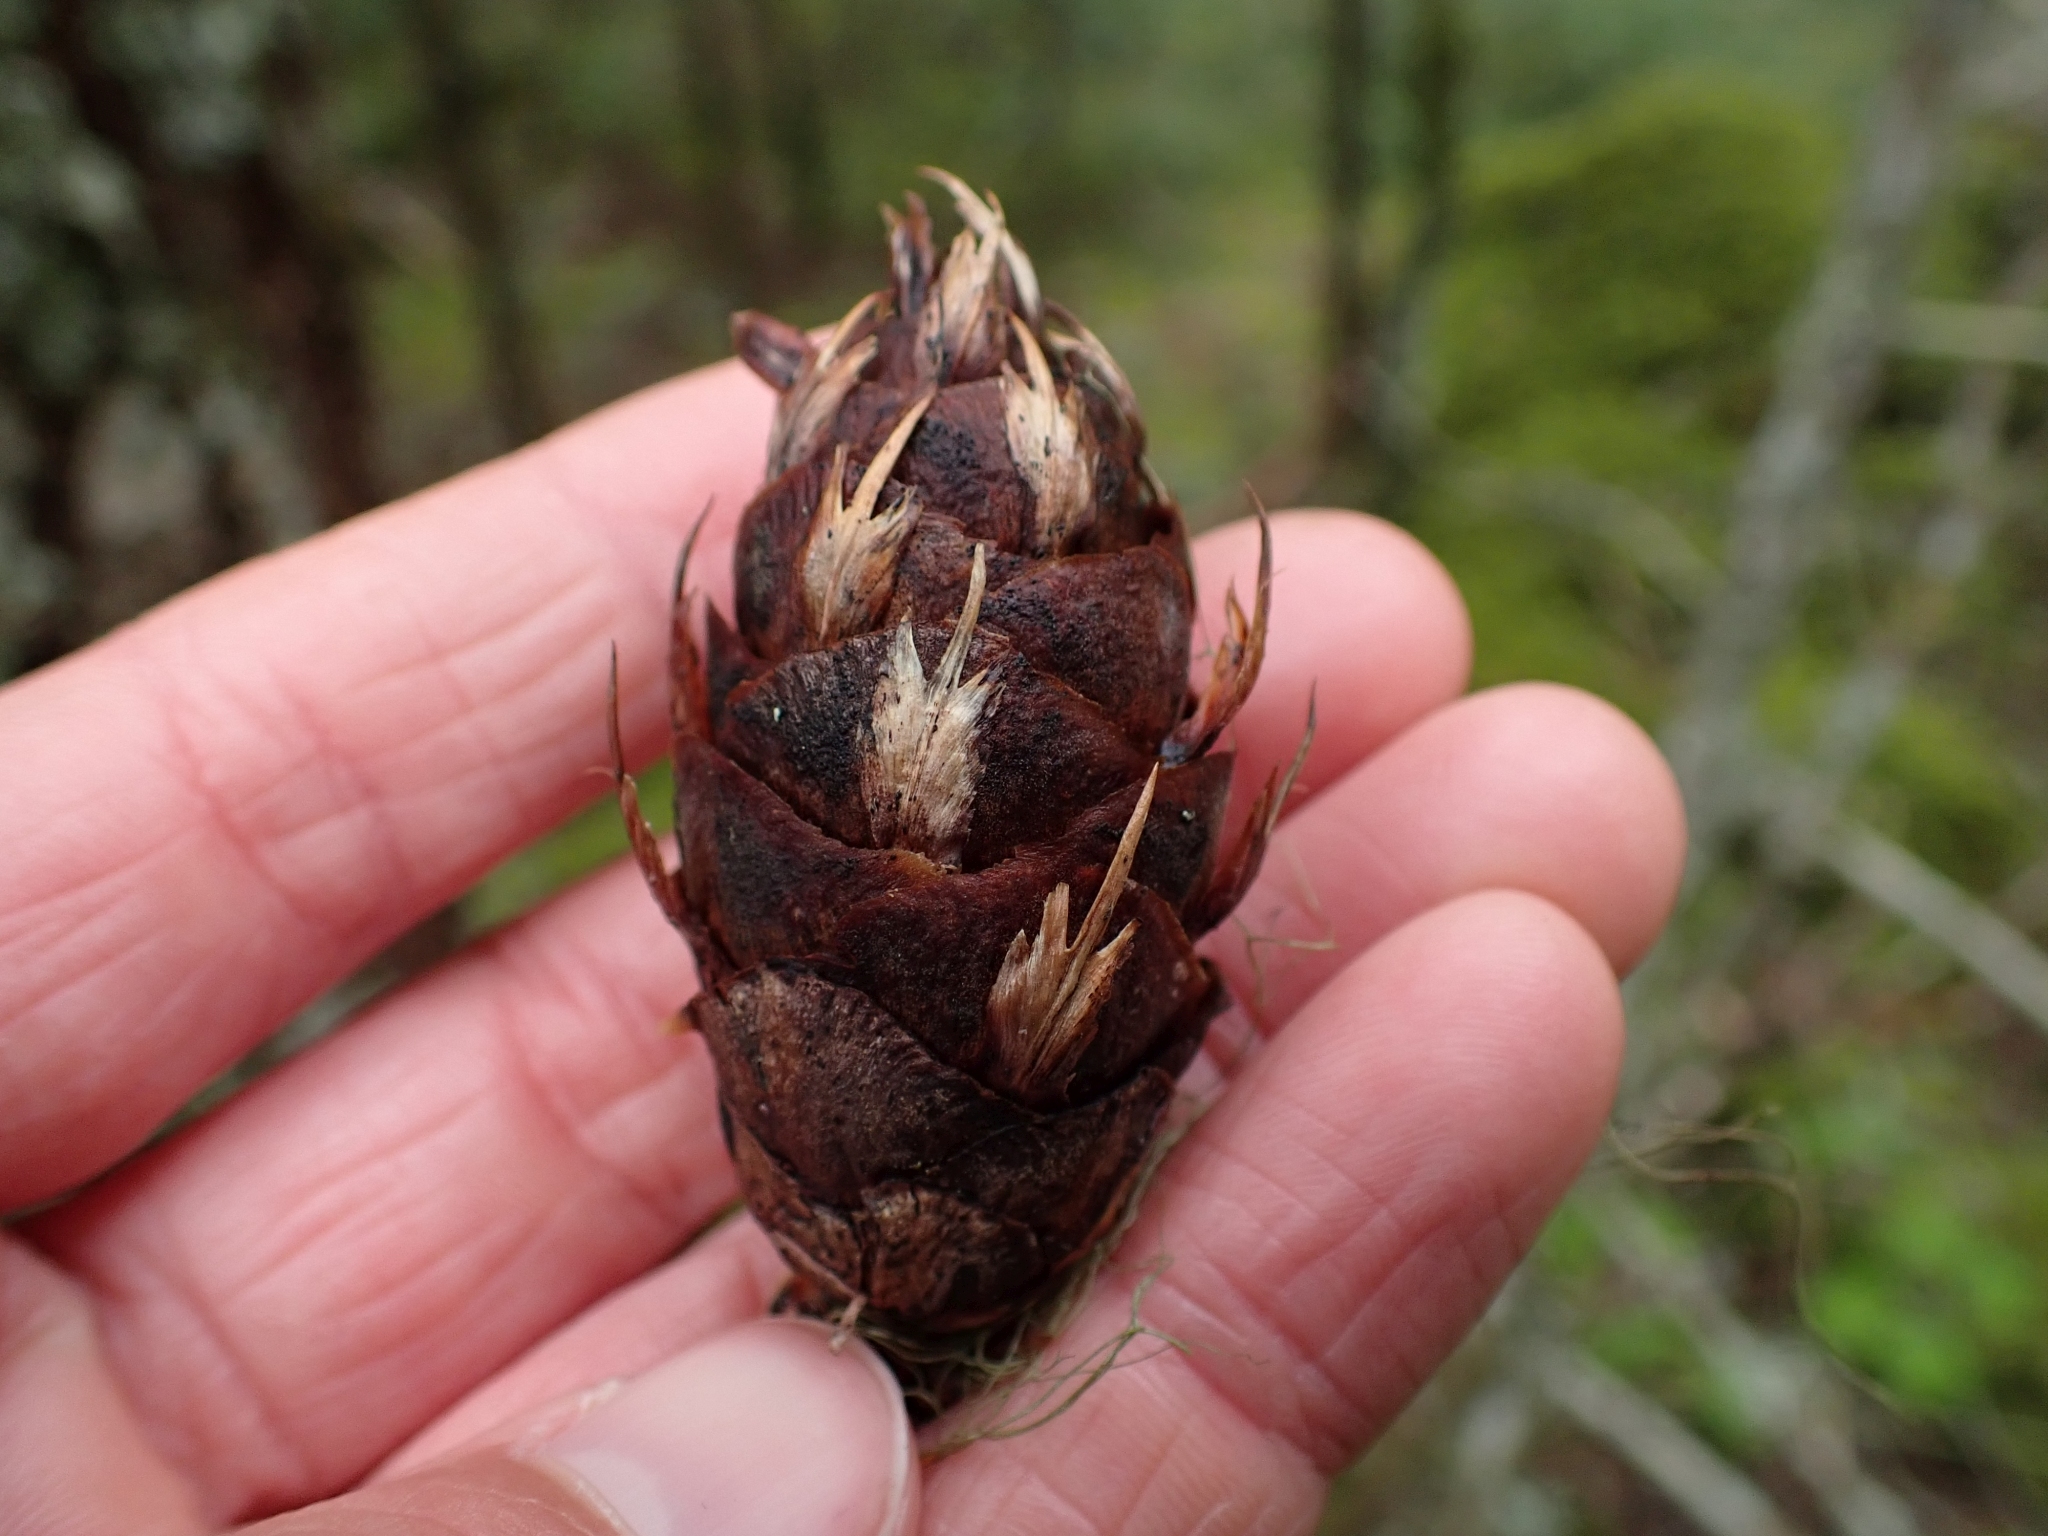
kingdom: Plantae
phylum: Tracheophyta
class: Pinopsida
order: Pinales
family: Pinaceae
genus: Pseudotsuga
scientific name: Pseudotsuga menziesii
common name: Douglas fir
